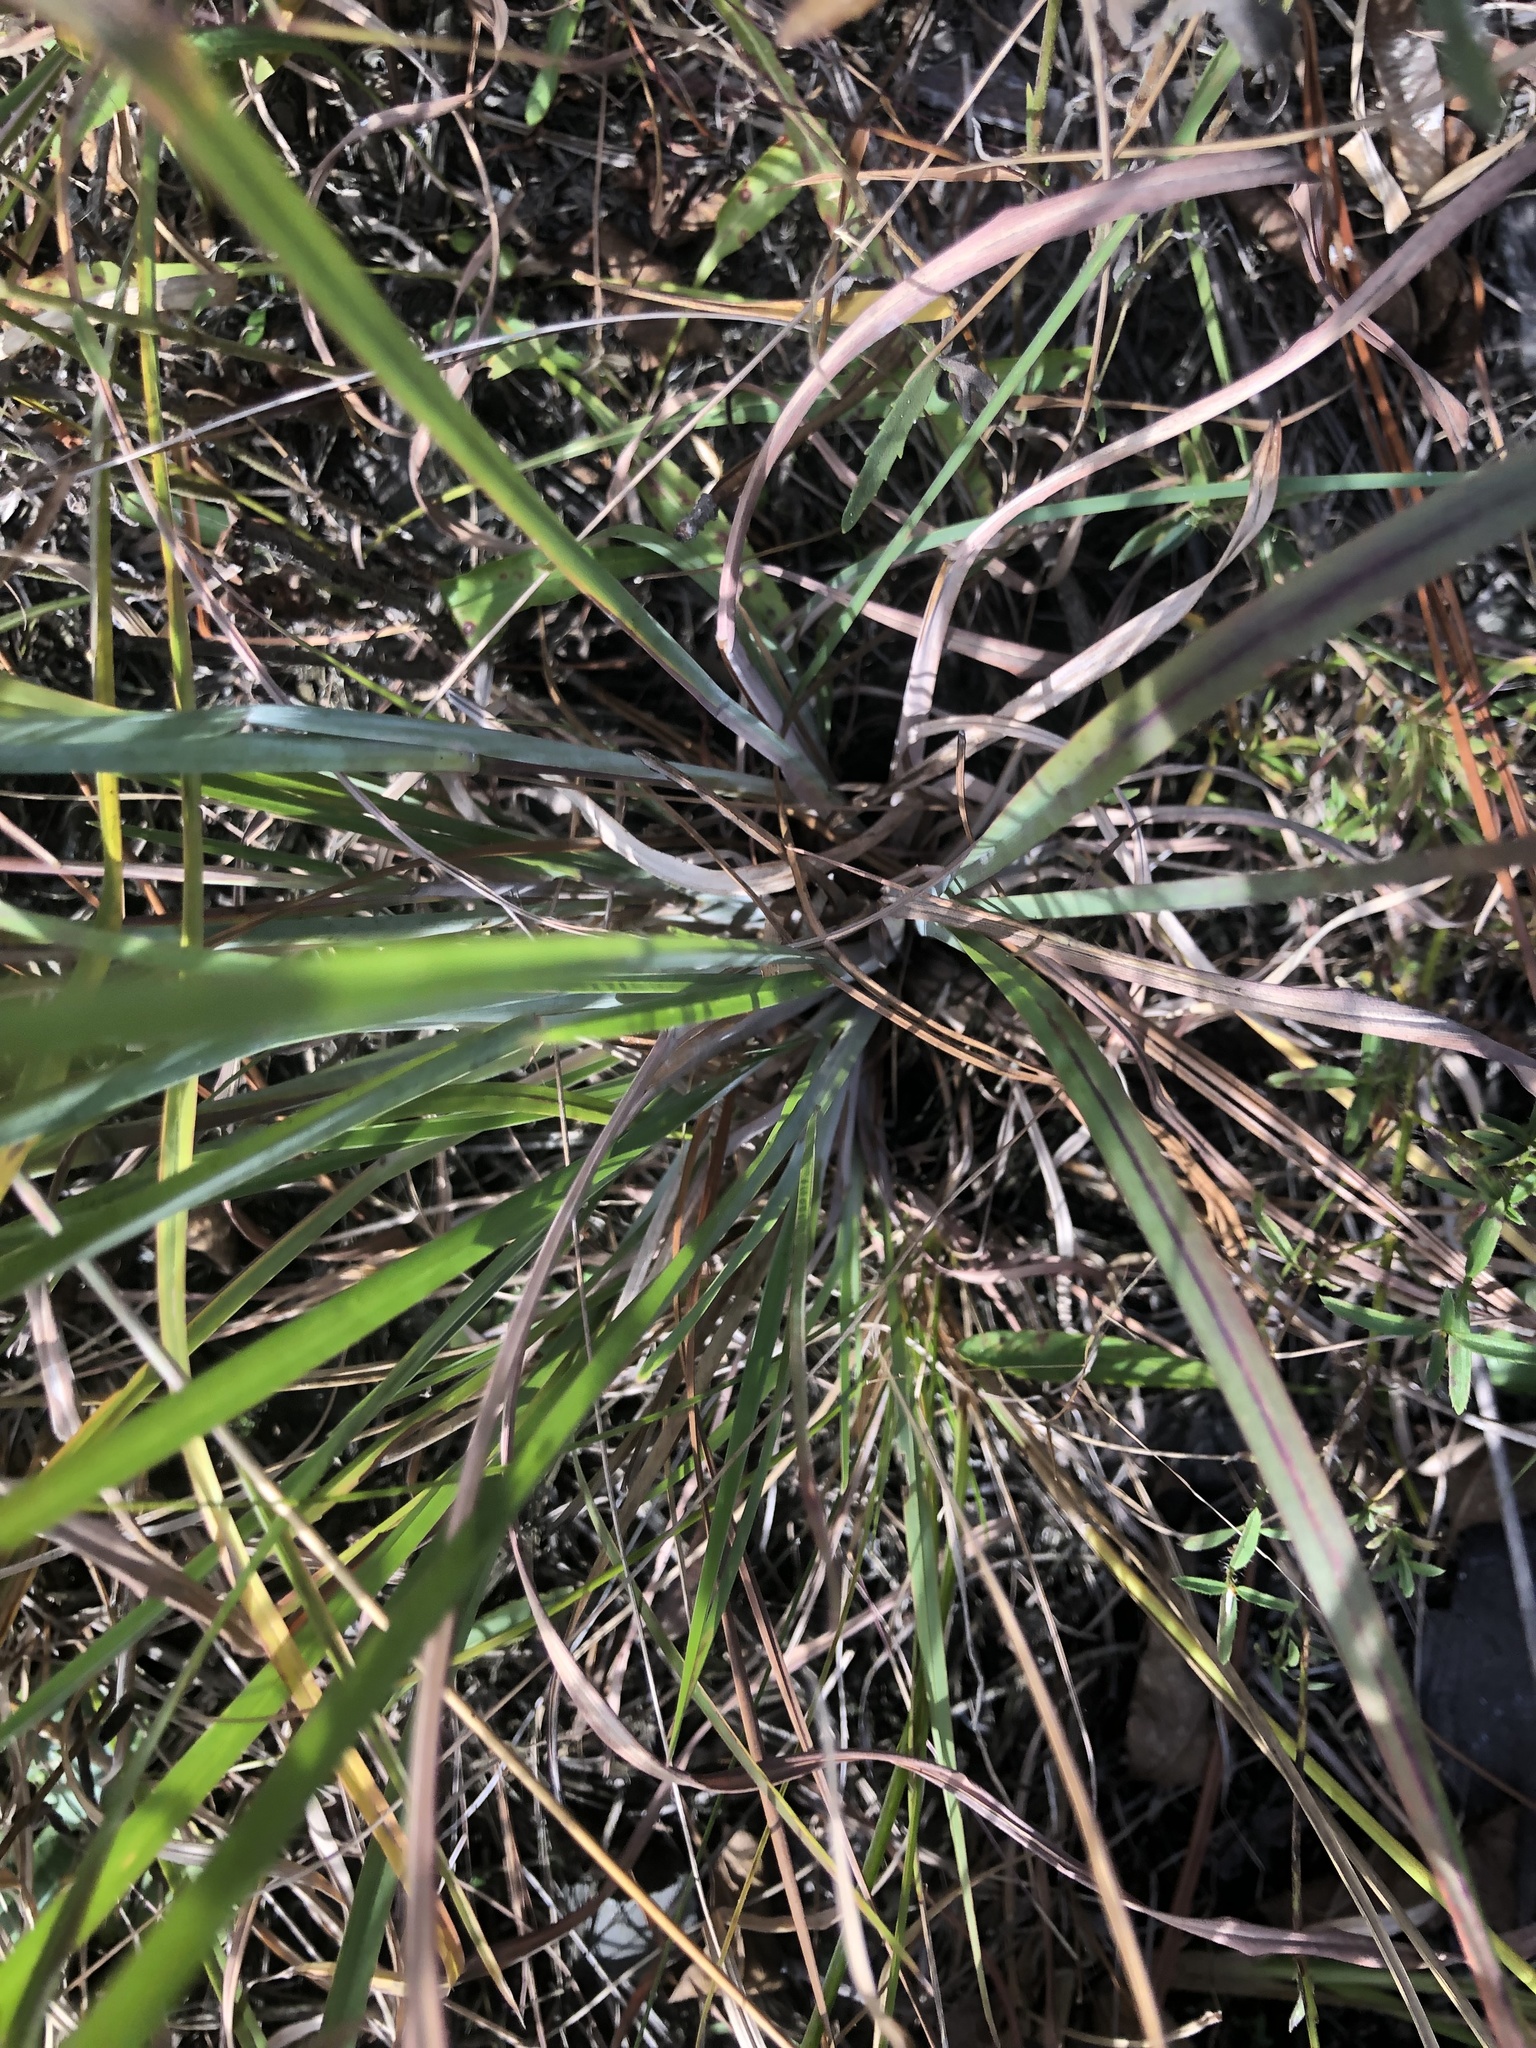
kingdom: Plantae
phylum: Tracheophyta
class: Liliopsida
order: Poales
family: Poaceae
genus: Andropogon
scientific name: Andropogon dealbatus
